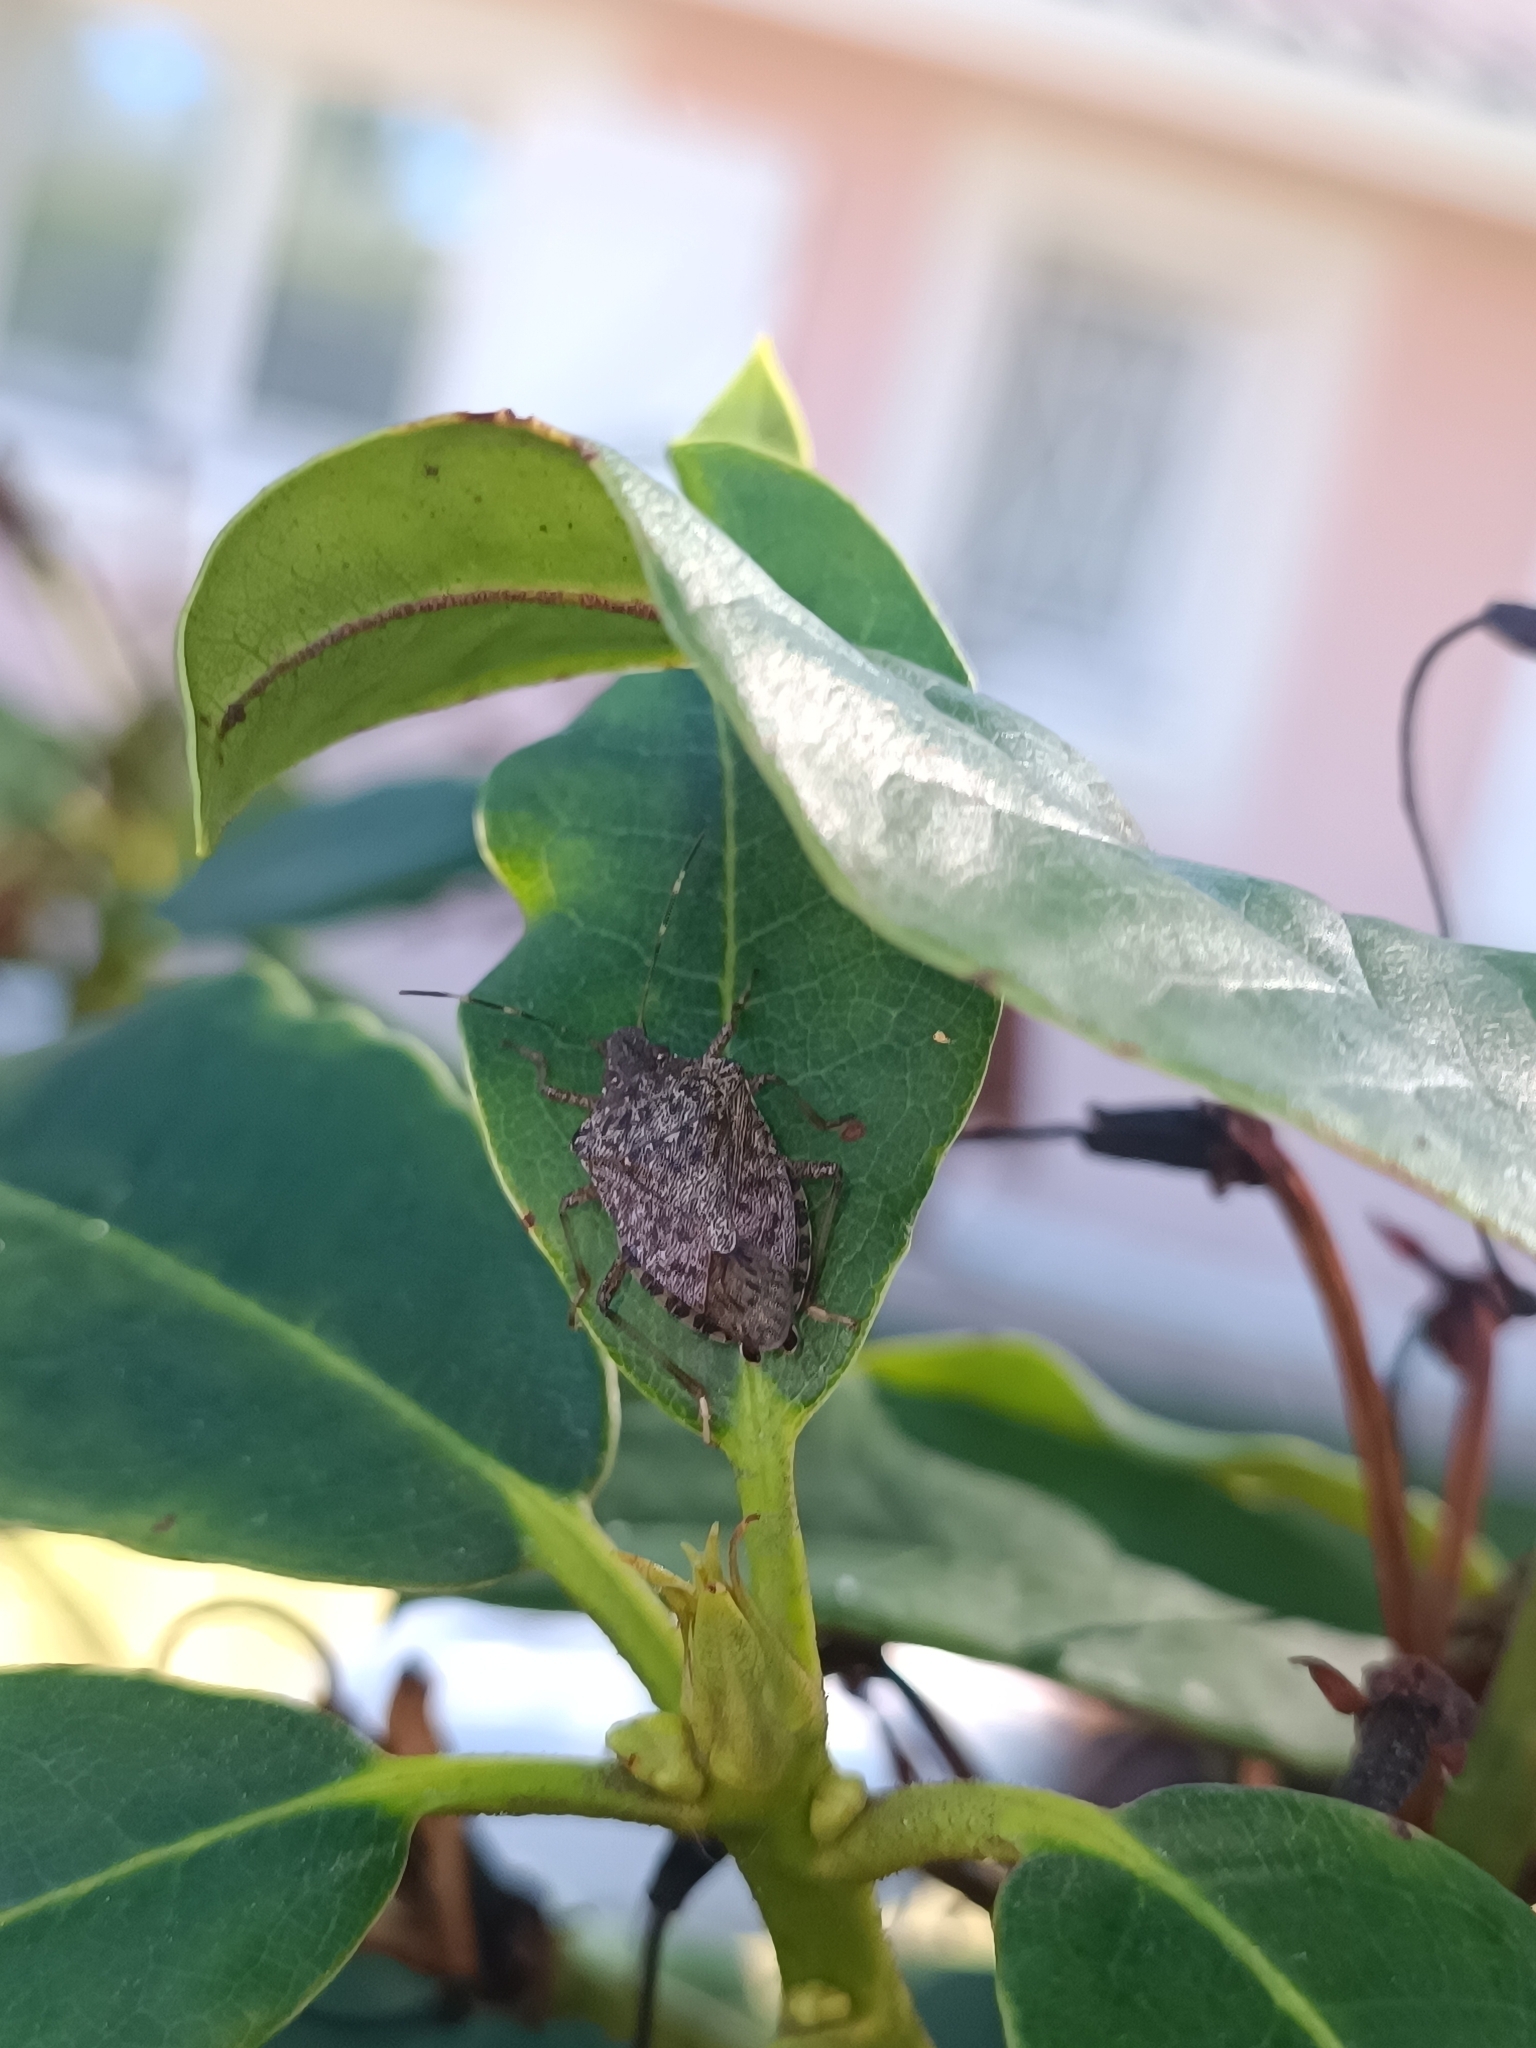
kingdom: Animalia
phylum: Arthropoda
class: Insecta
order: Hemiptera
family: Pentatomidae
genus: Halyomorpha
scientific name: Halyomorpha halys
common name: Brown marmorated stink bug
